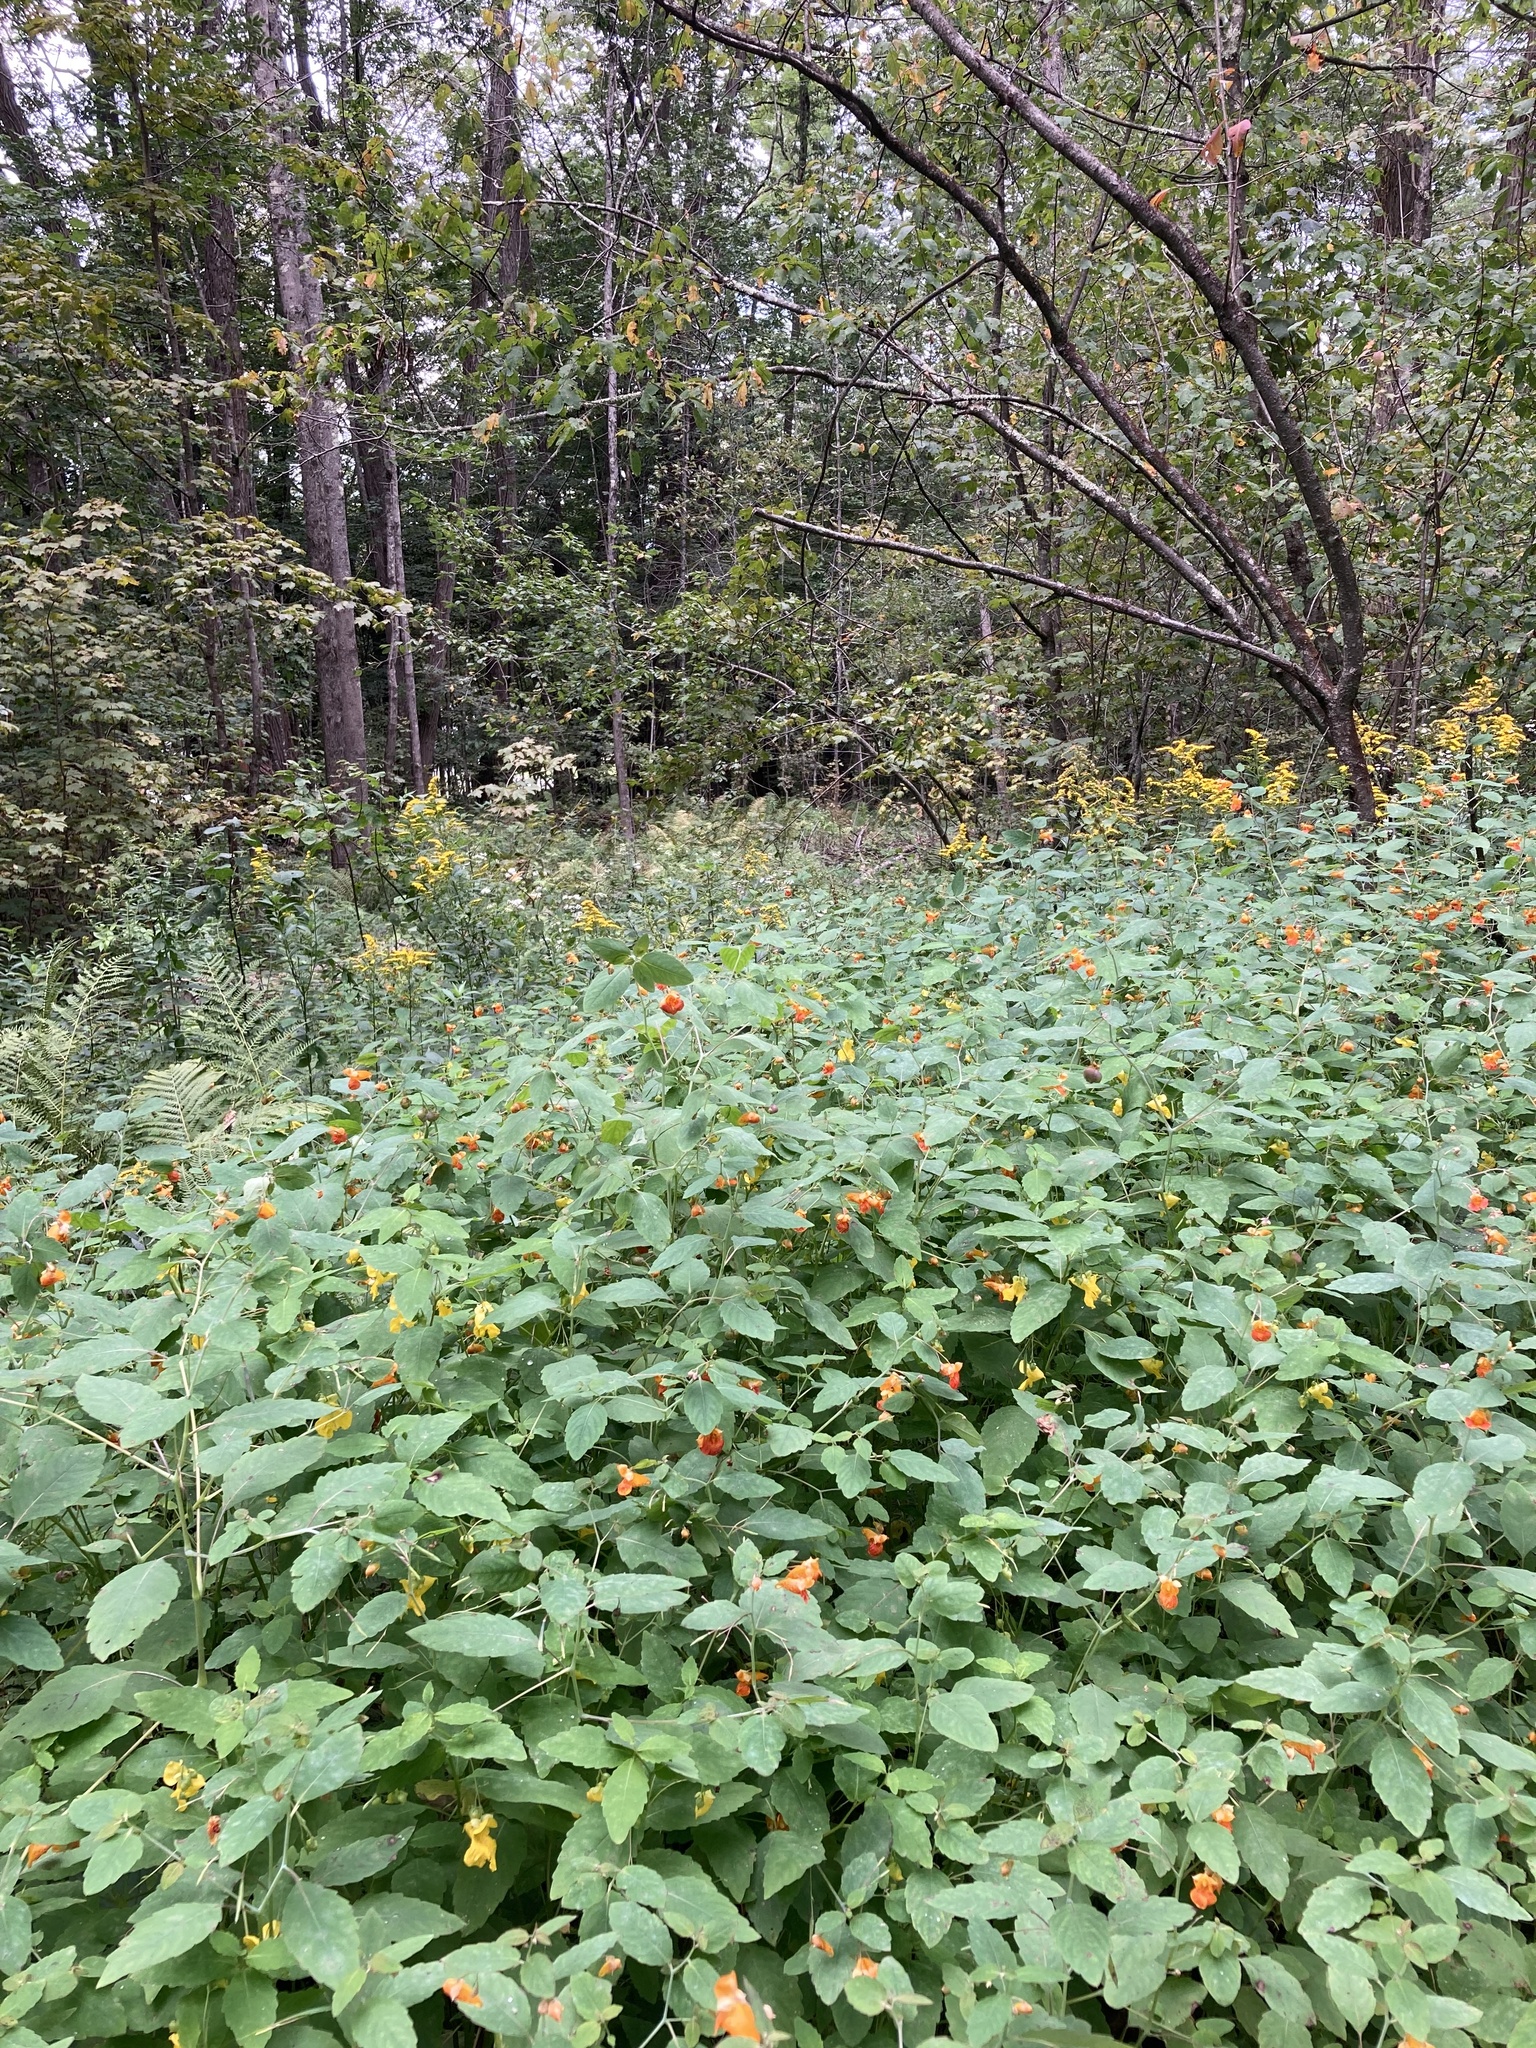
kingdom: Plantae
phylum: Tracheophyta
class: Magnoliopsida
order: Ericales
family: Balsaminaceae
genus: Impatiens
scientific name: Impatiens capensis
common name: Orange balsam
